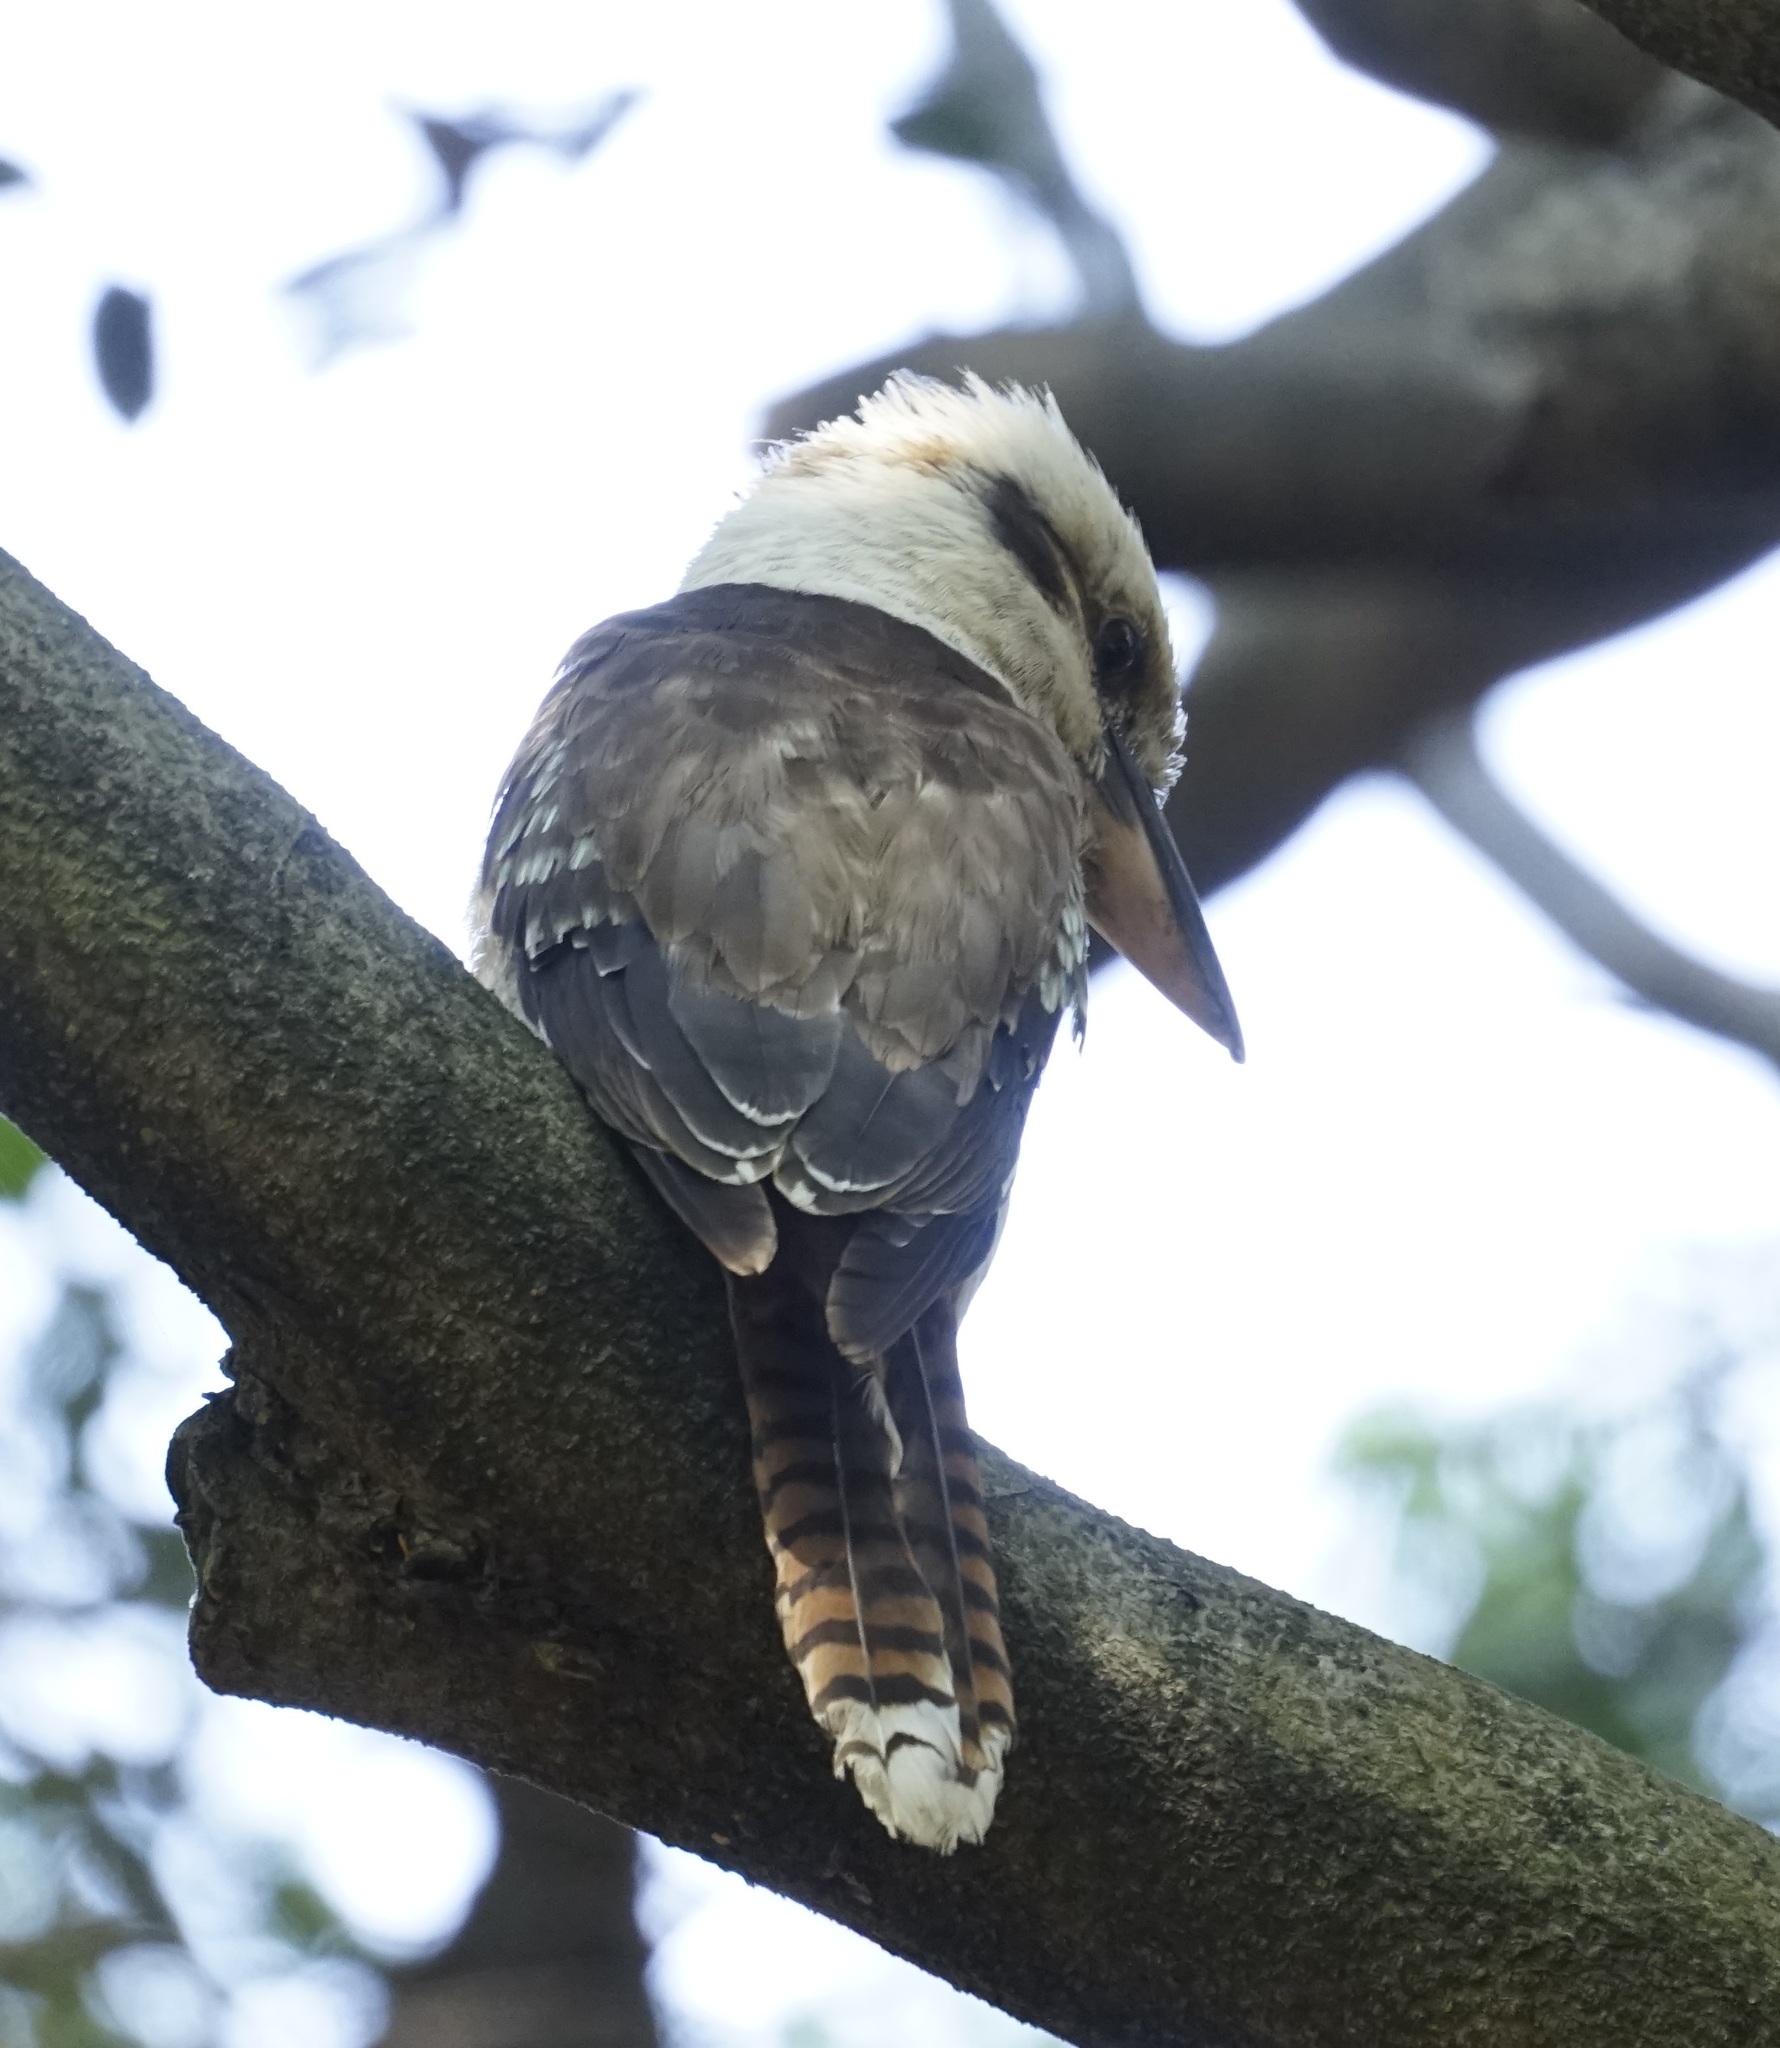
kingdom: Animalia
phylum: Chordata
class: Aves
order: Coraciiformes
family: Alcedinidae
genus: Dacelo
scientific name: Dacelo novaeguineae
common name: Laughing kookaburra
